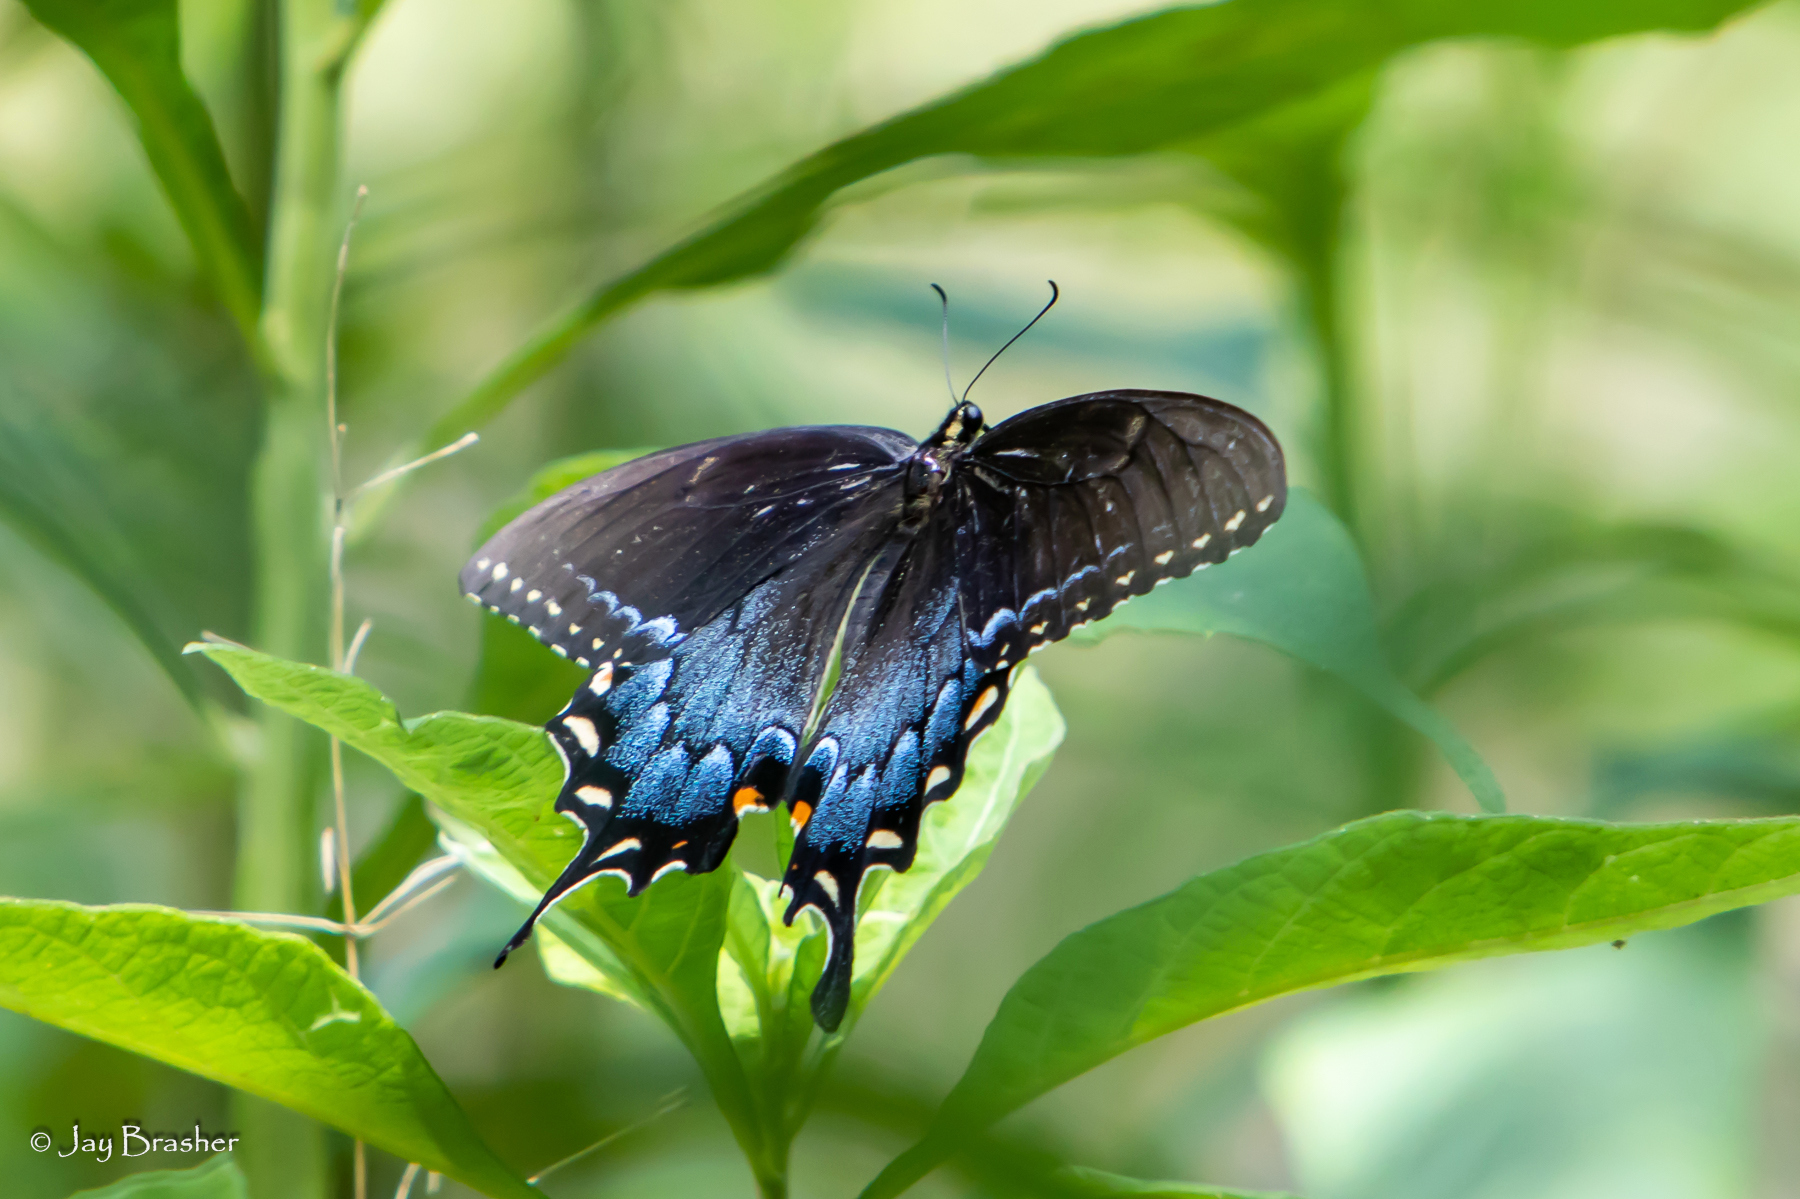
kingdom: Animalia
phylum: Arthropoda
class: Insecta
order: Lepidoptera
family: Papilionidae
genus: Papilio
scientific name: Papilio glaucus
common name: Tiger swallowtail
